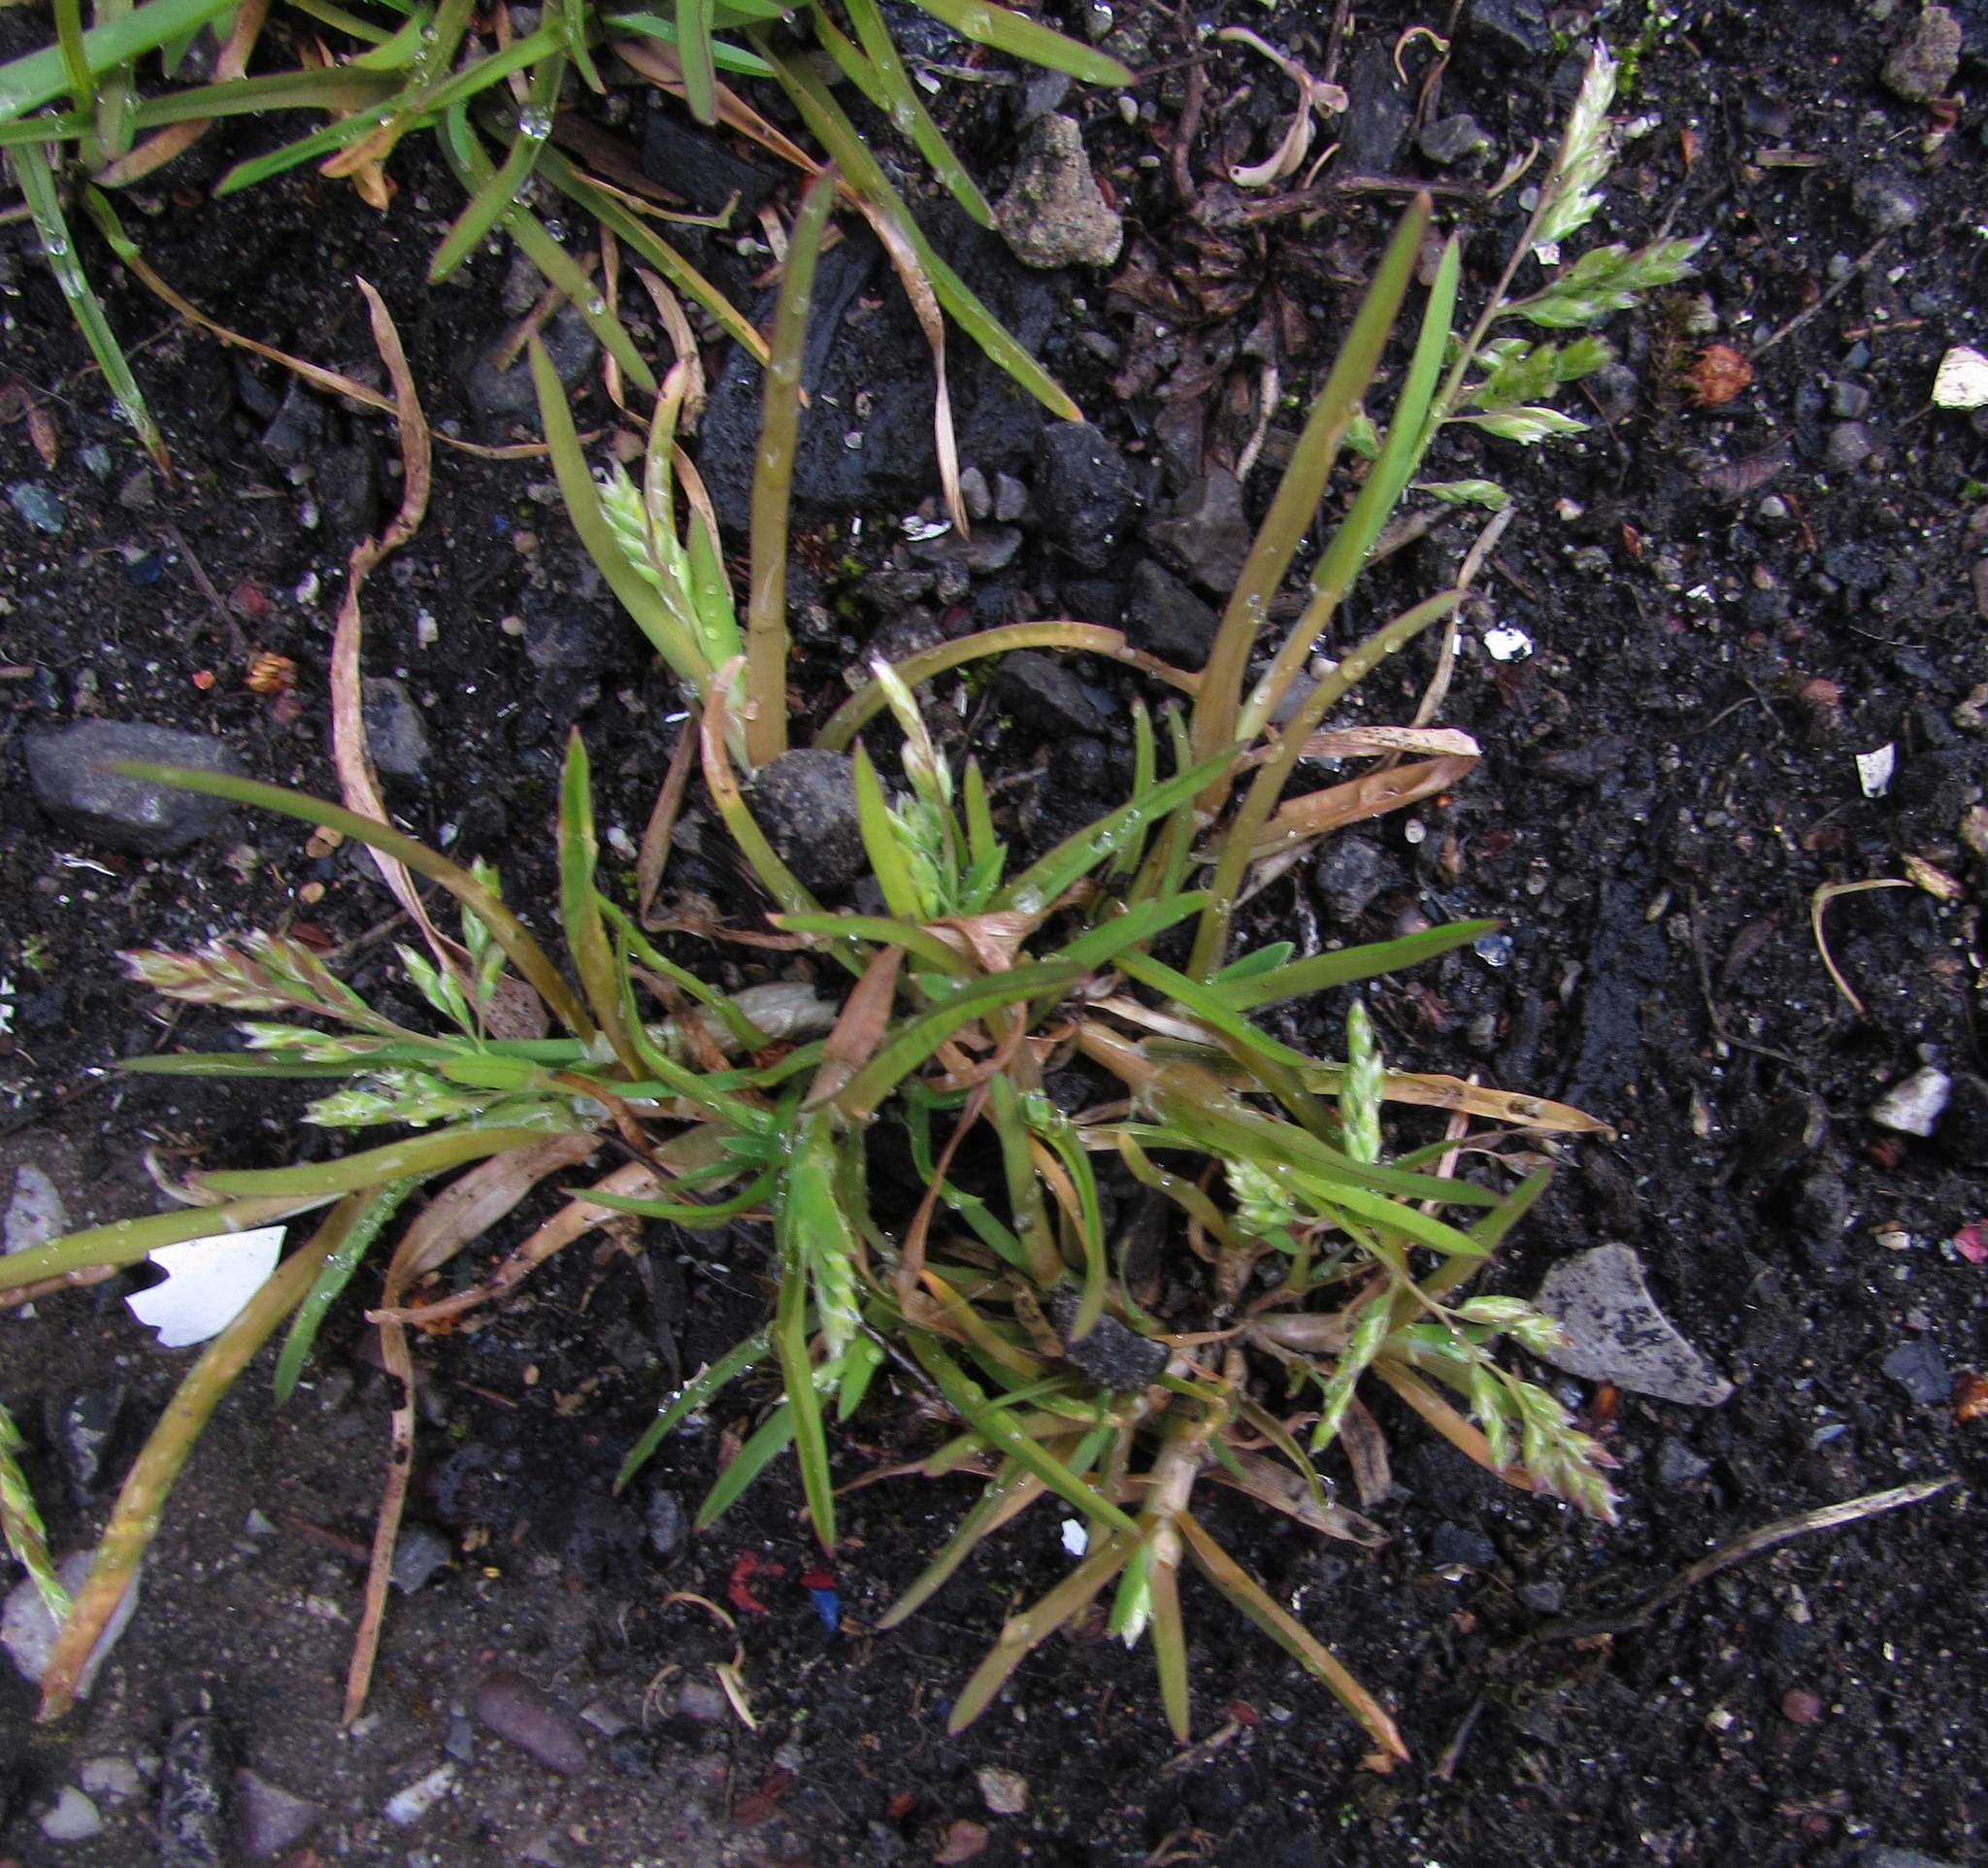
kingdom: Plantae
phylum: Tracheophyta
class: Liliopsida
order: Poales
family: Poaceae
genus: Poa
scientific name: Poa annua
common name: Annual bluegrass
